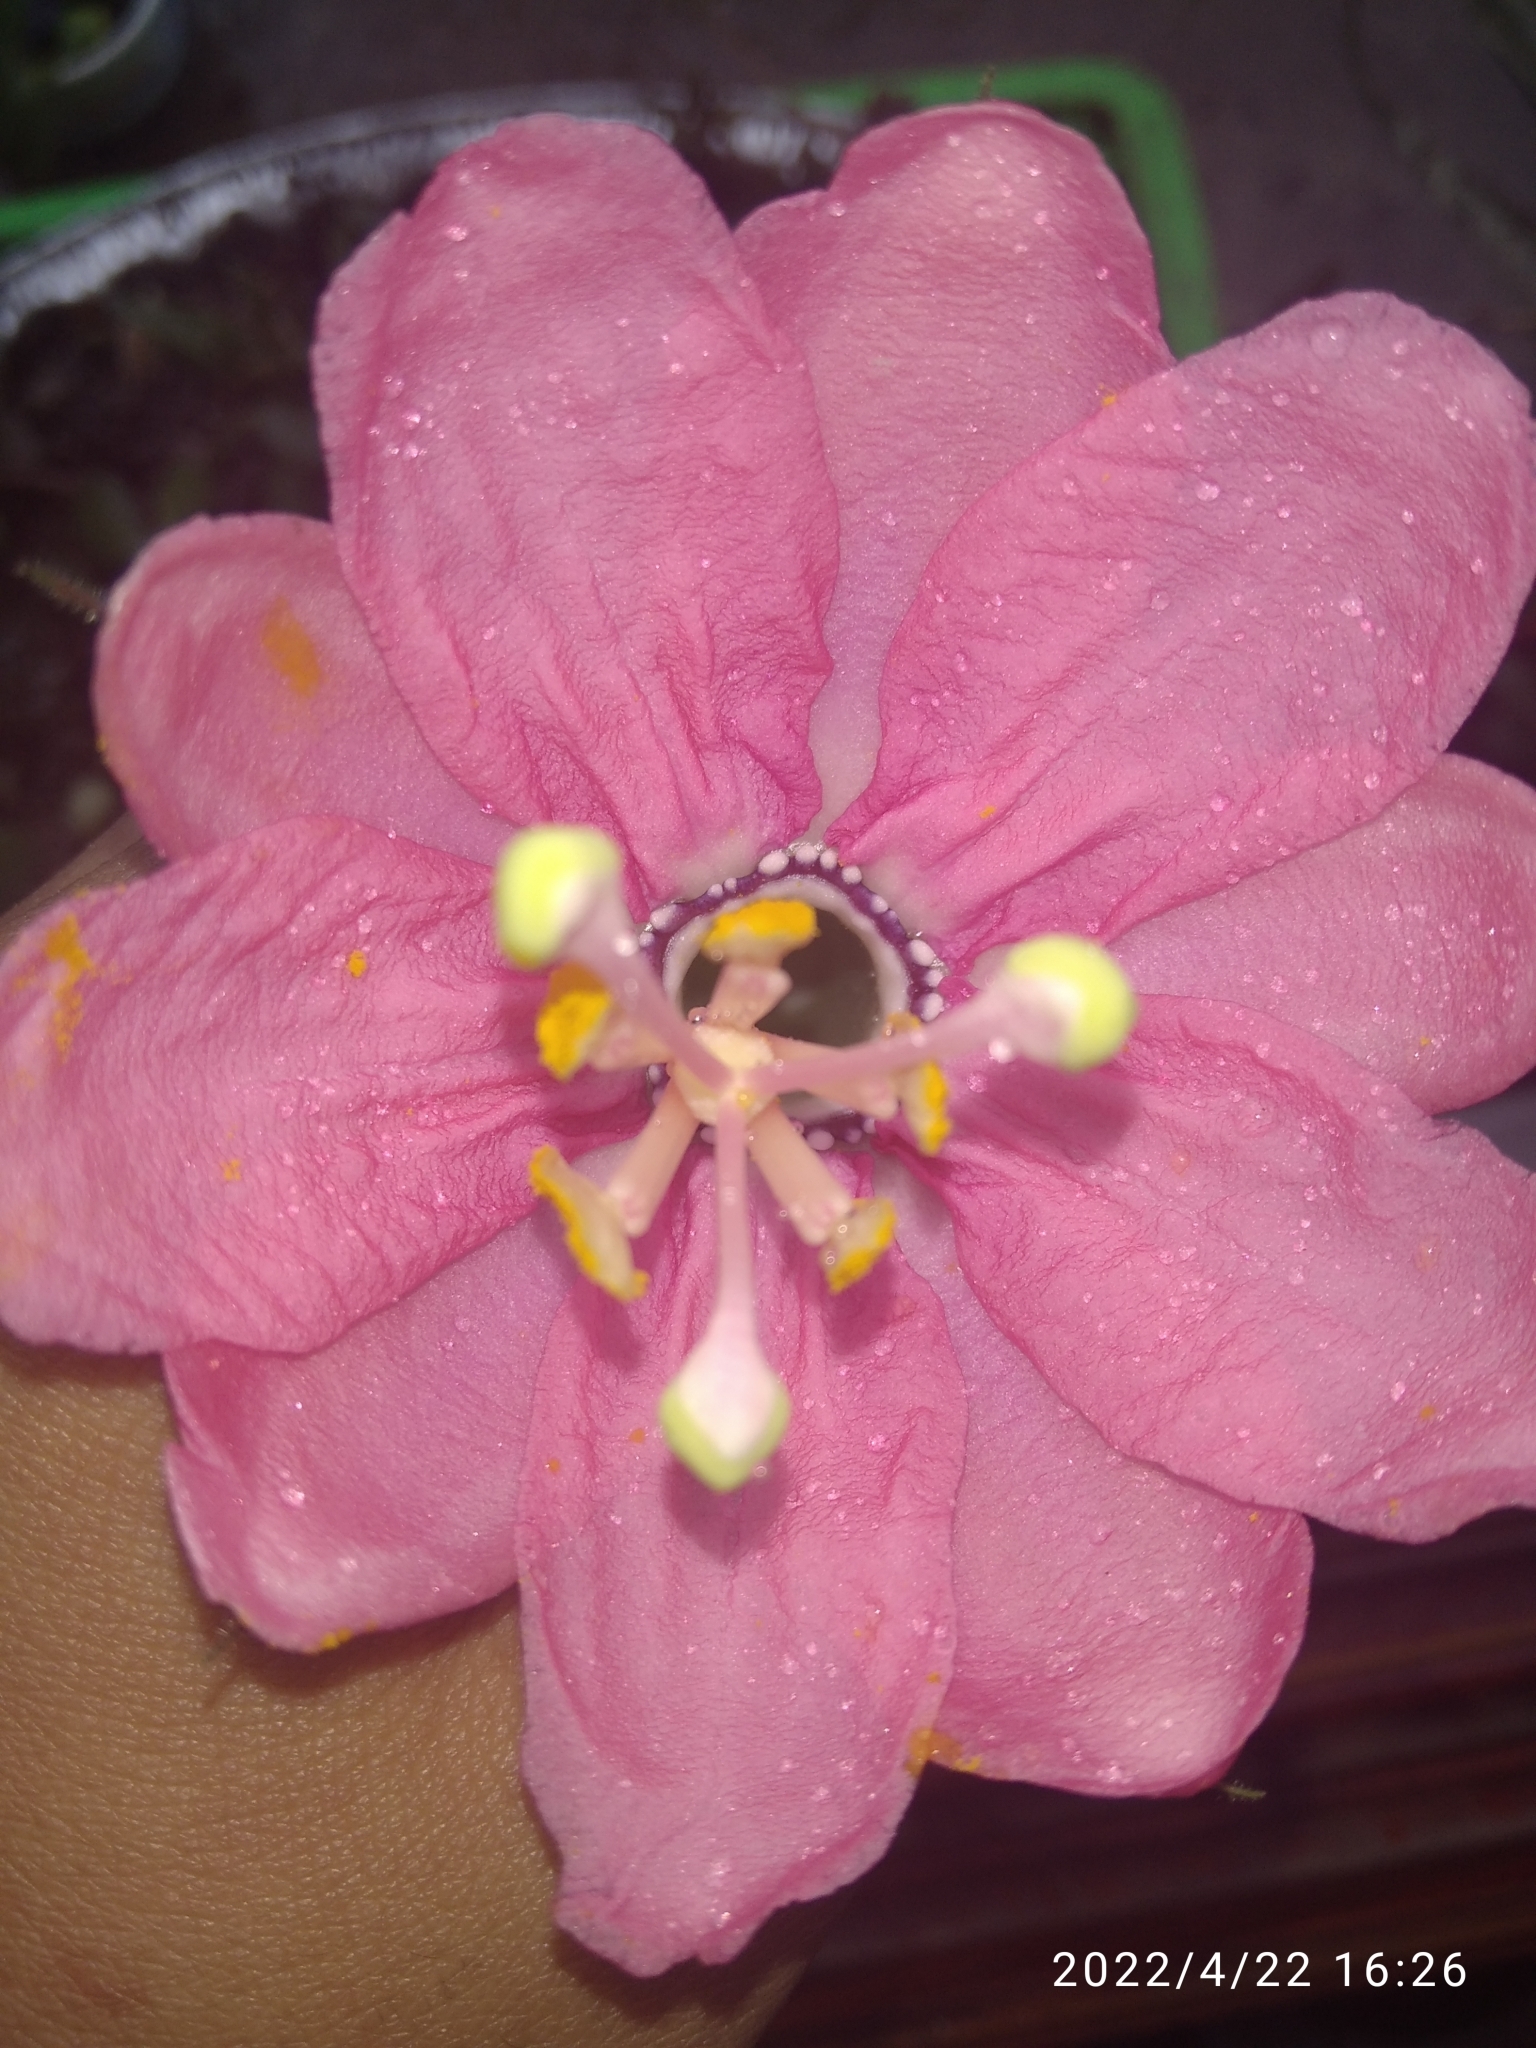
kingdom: Plantae
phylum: Tracheophyta
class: Magnoliopsida
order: Malpighiales
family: Passifloraceae
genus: Passiflora
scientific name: Passiflora tripartita
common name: Banana poka
